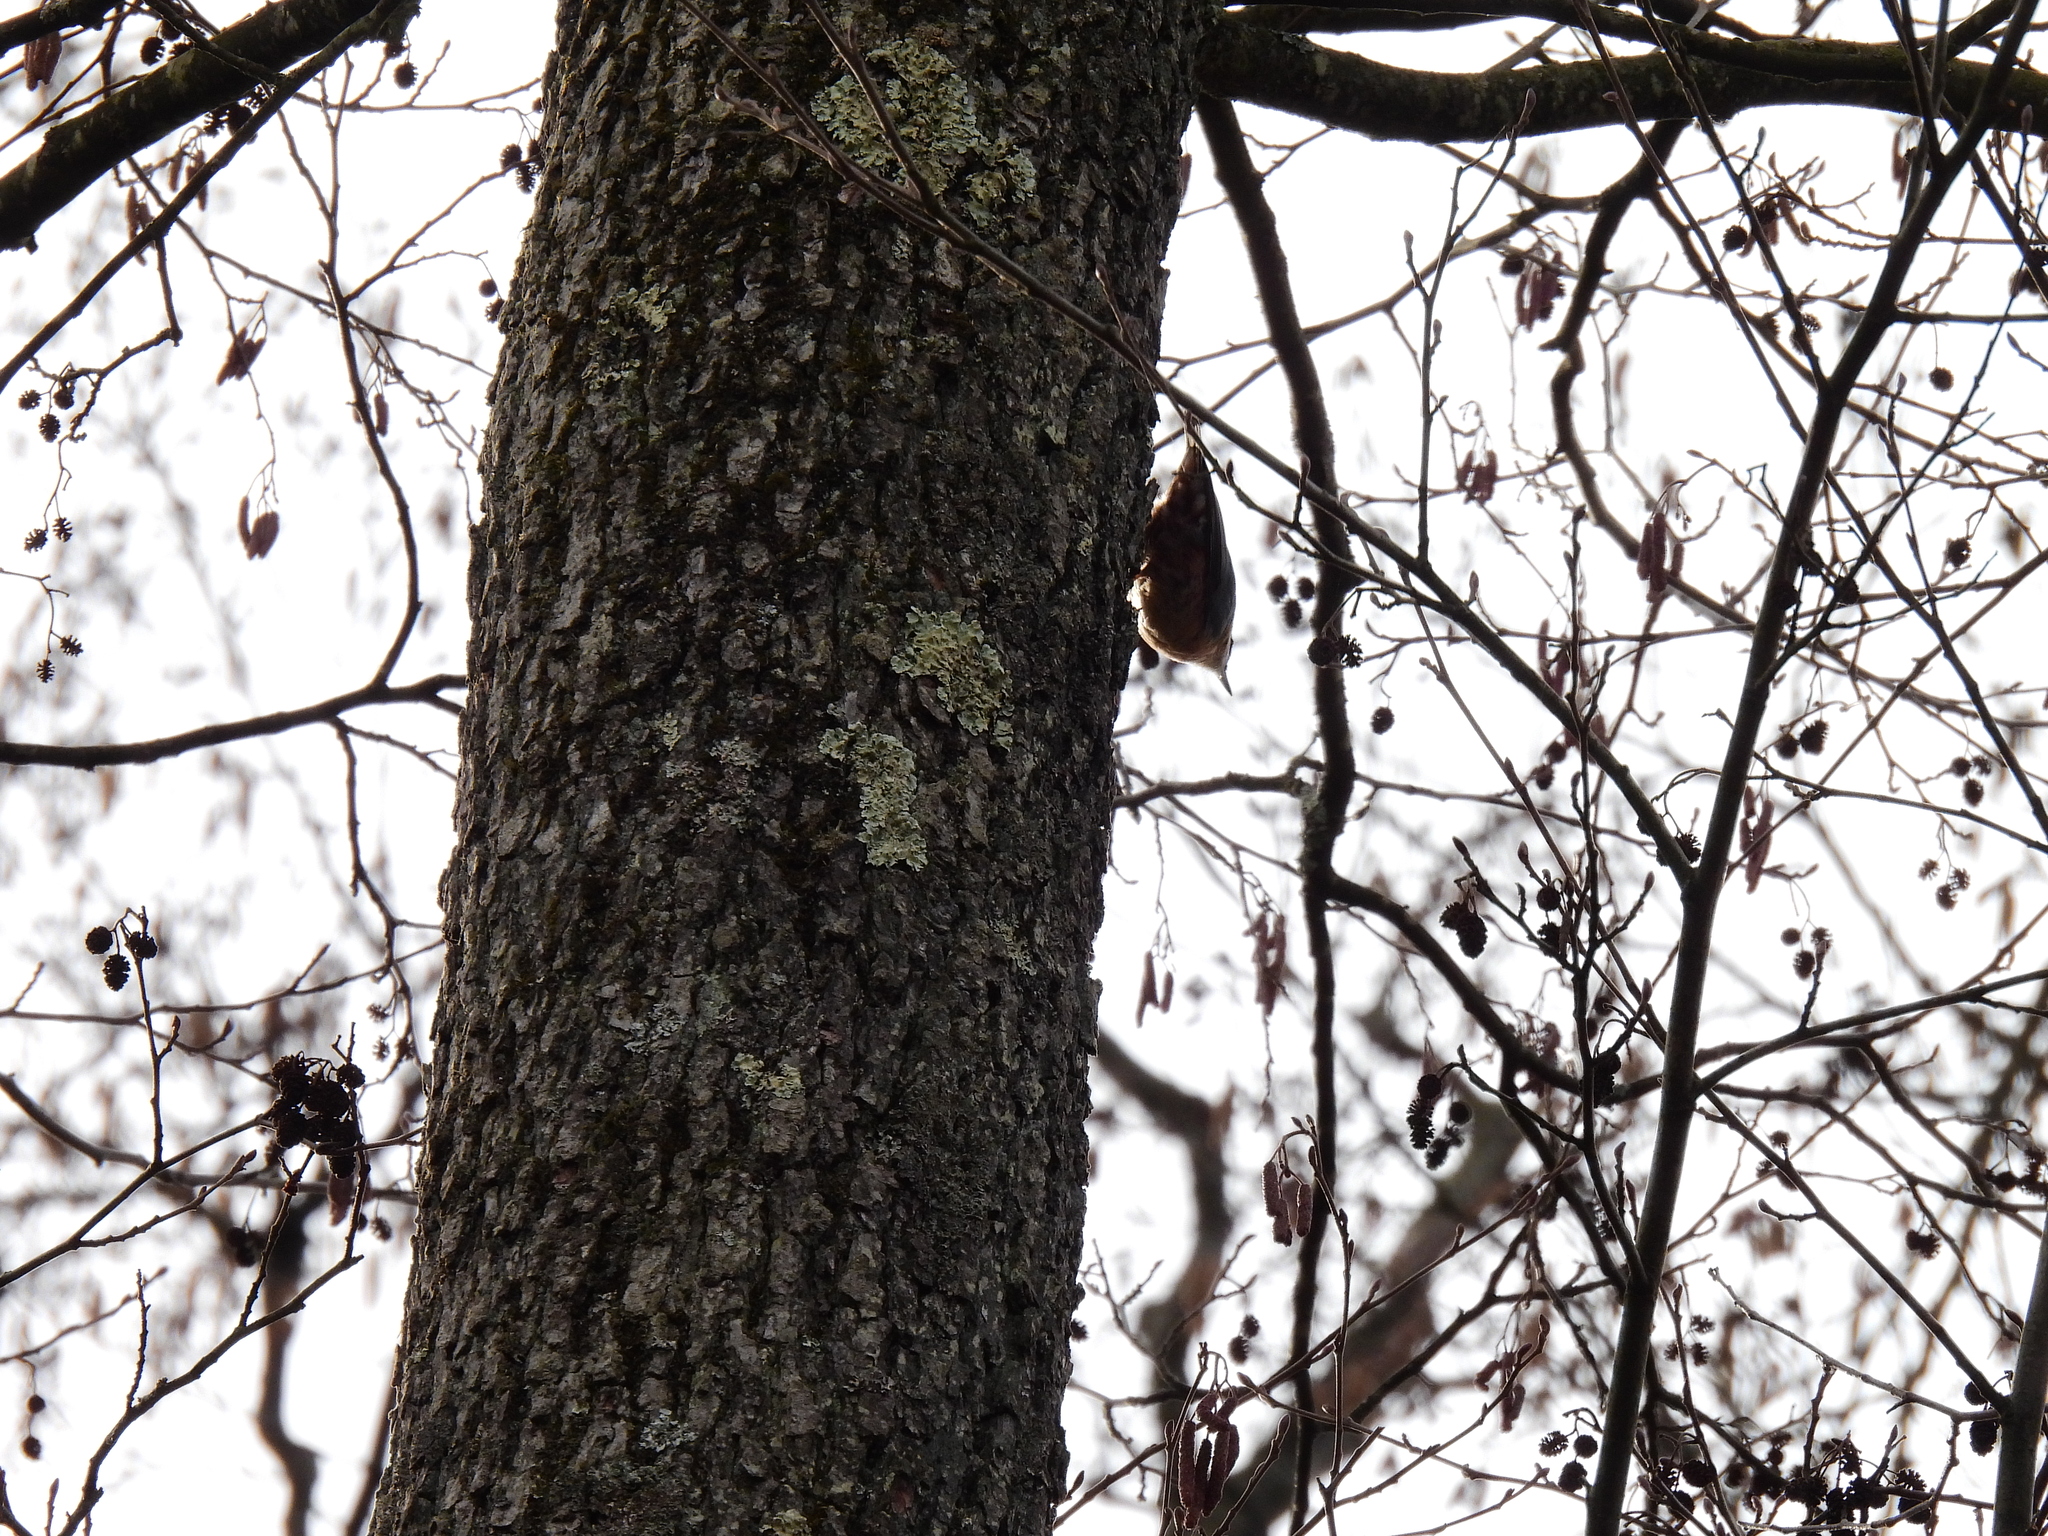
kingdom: Animalia
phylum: Chordata
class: Aves
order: Passeriformes
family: Sittidae
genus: Sitta
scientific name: Sitta europaea
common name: Eurasian nuthatch
